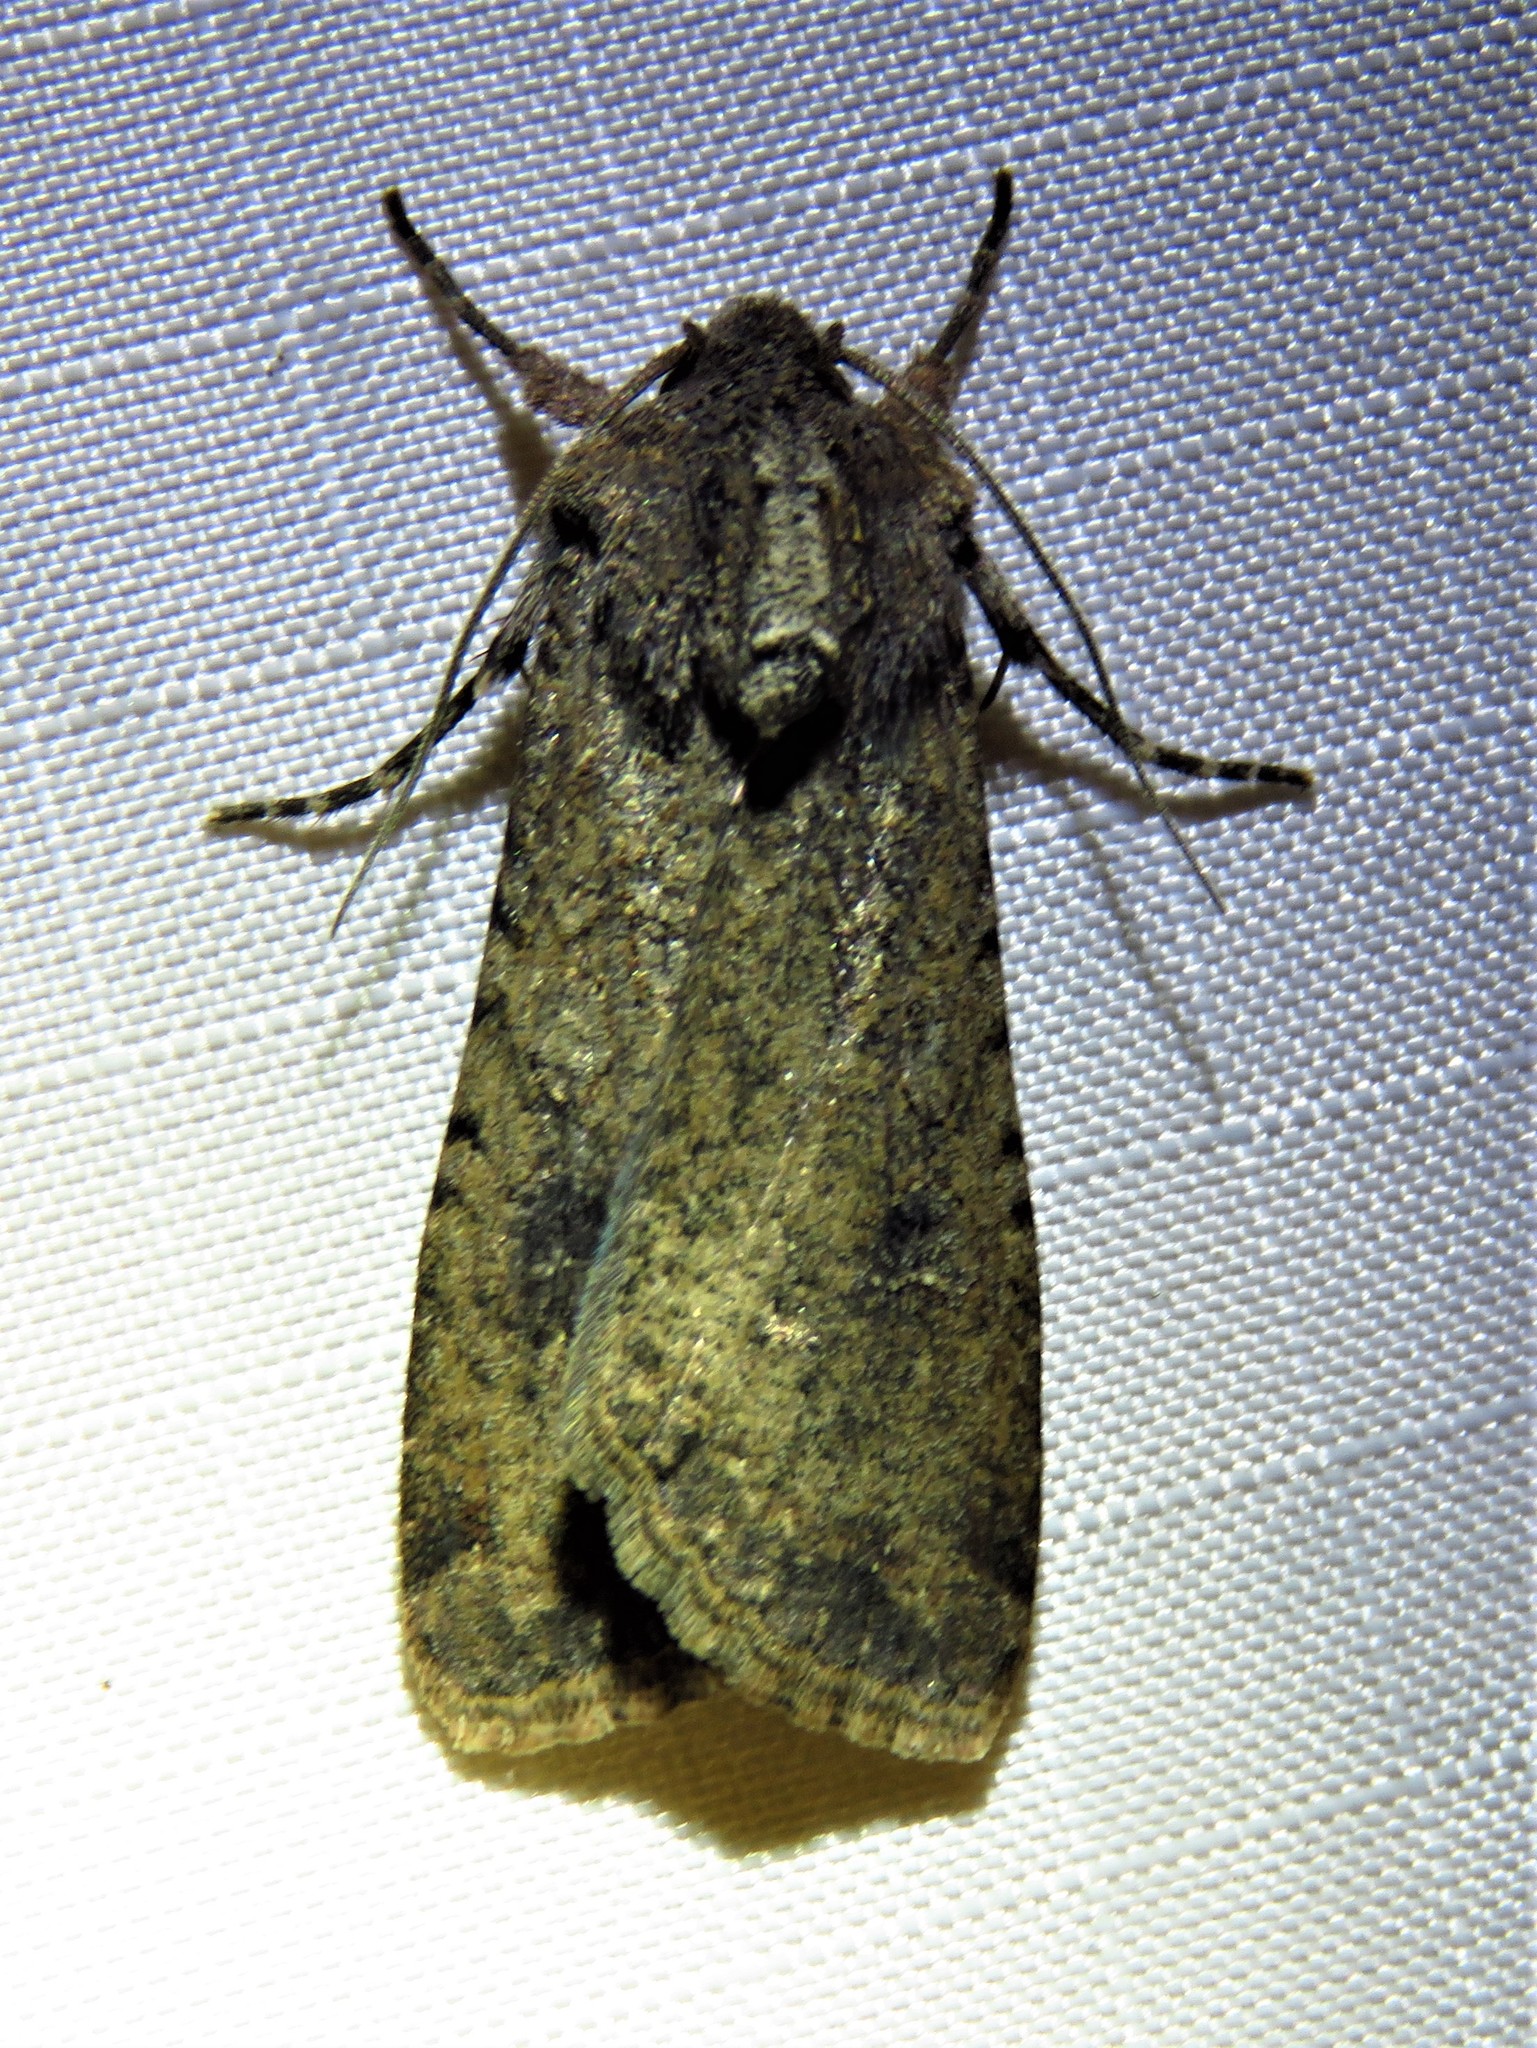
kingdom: Animalia
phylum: Arthropoda
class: Insecta
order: Lepidoptera
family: Noctuidae
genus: Peridroma
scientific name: Peridroma saucia
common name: Pearly underwing
